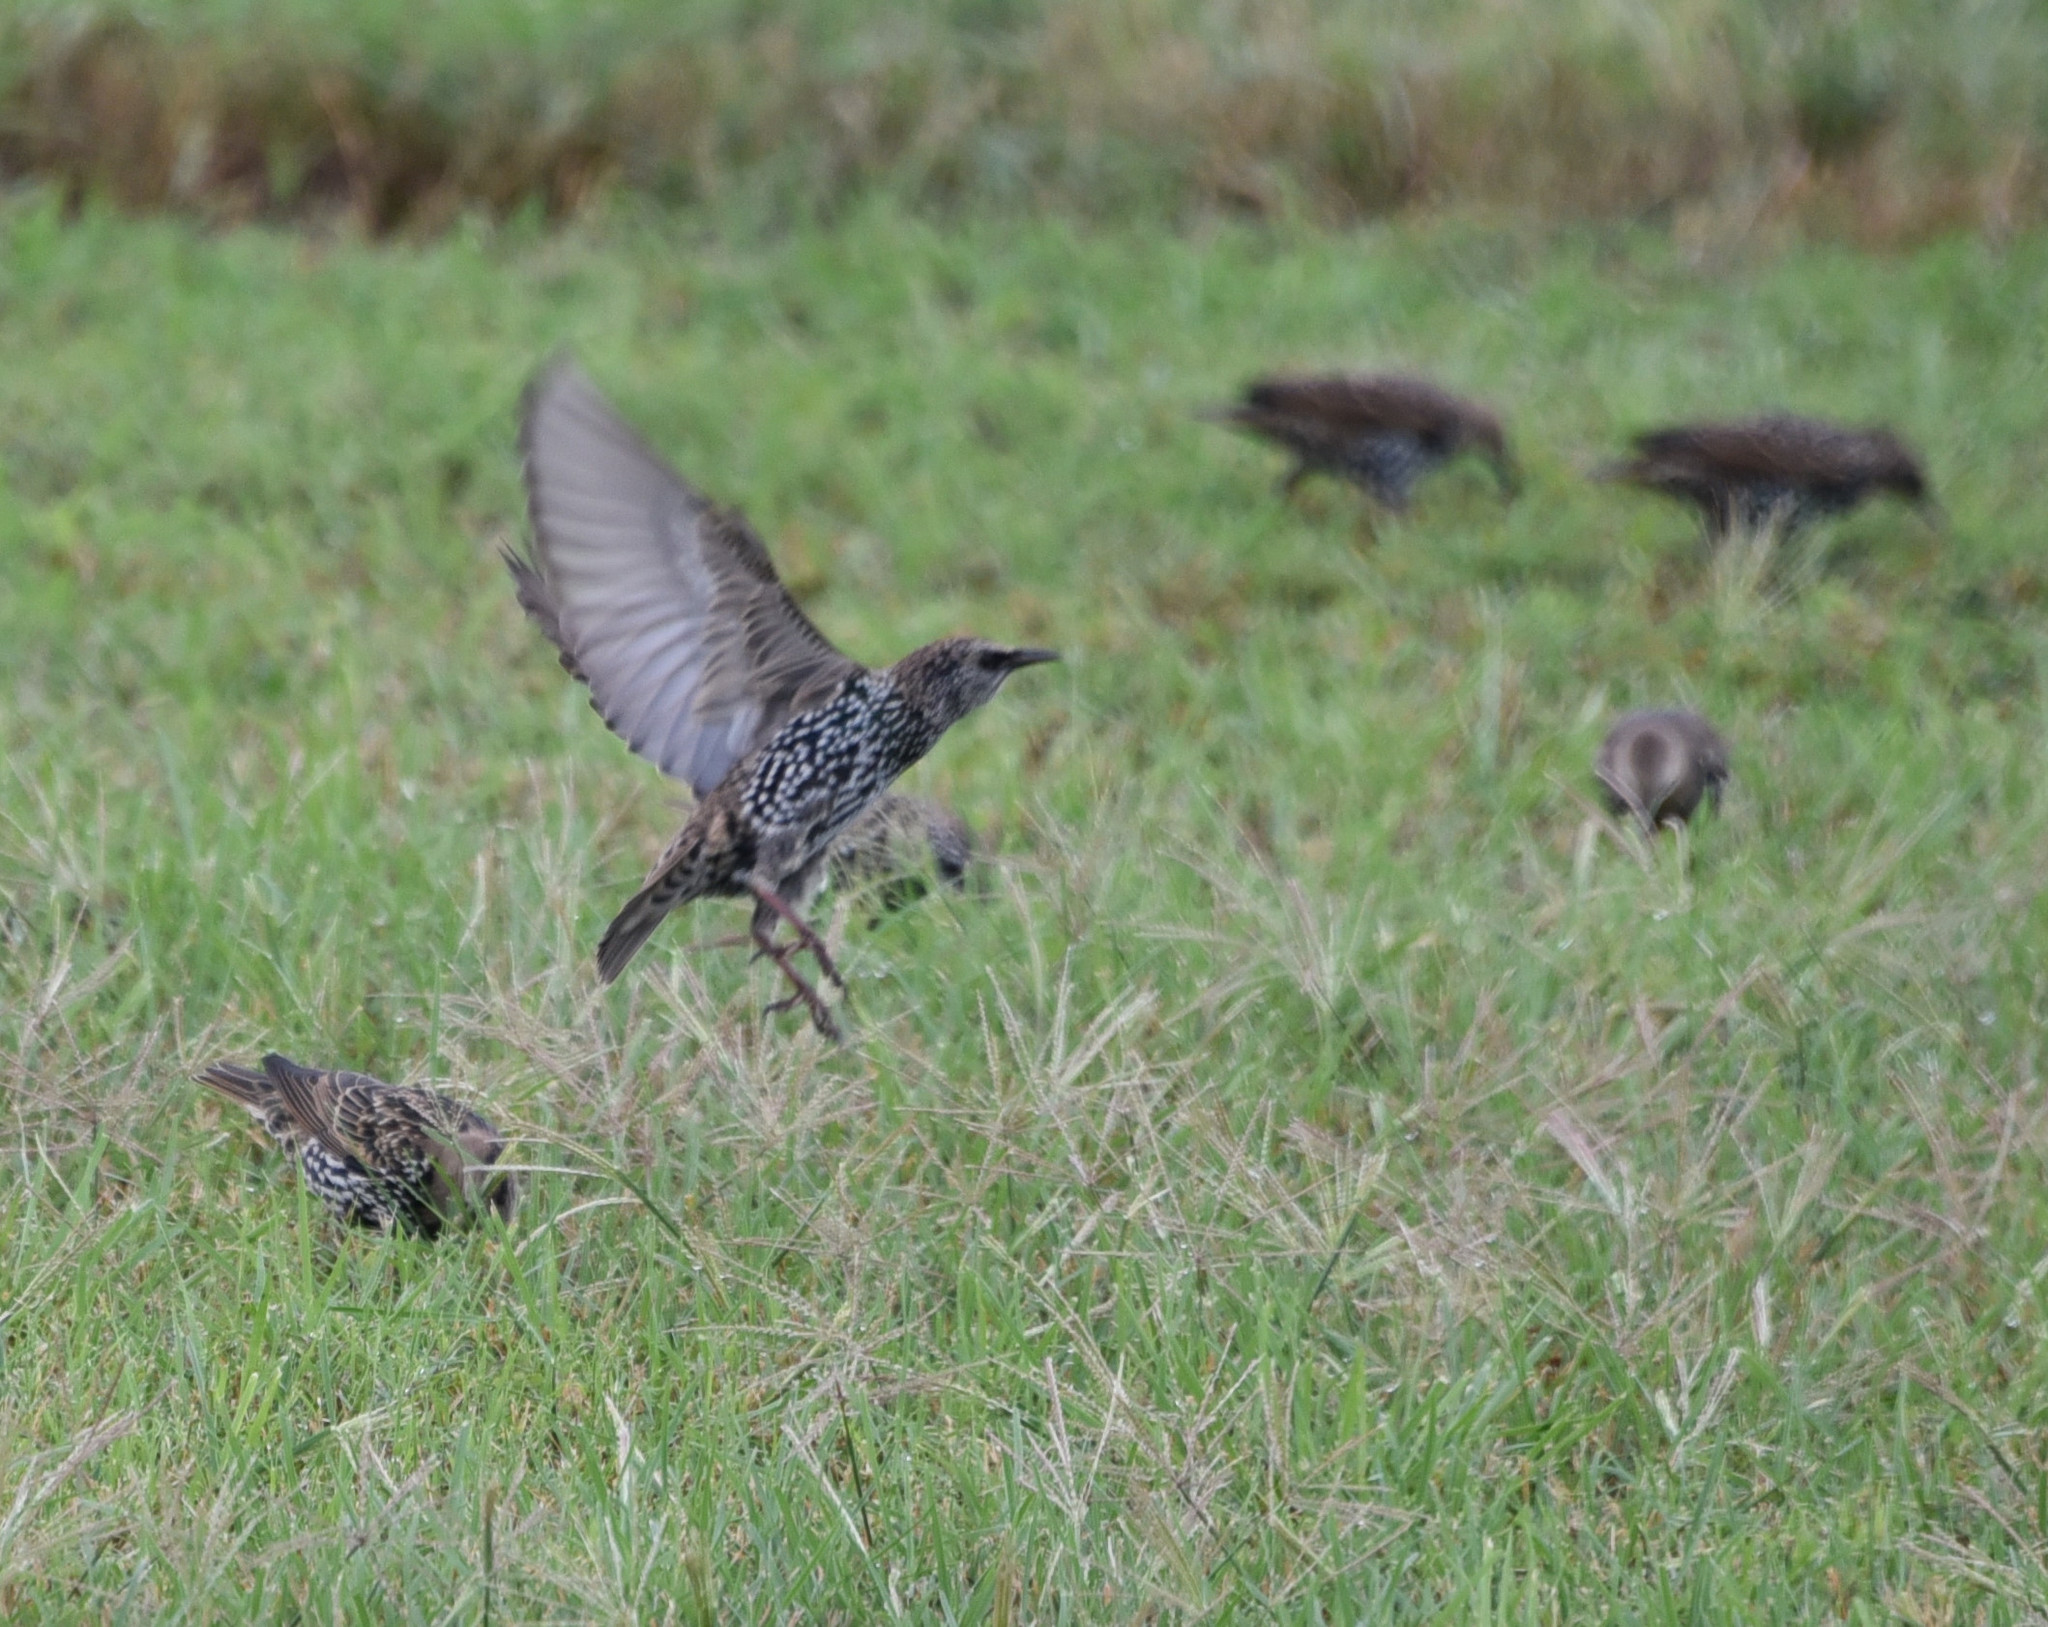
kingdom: Animalia
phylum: Chordata
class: Aves
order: Passeriformes
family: Sturnidae
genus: Sturnus
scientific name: Sturnus vulgaris
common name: Common starling
